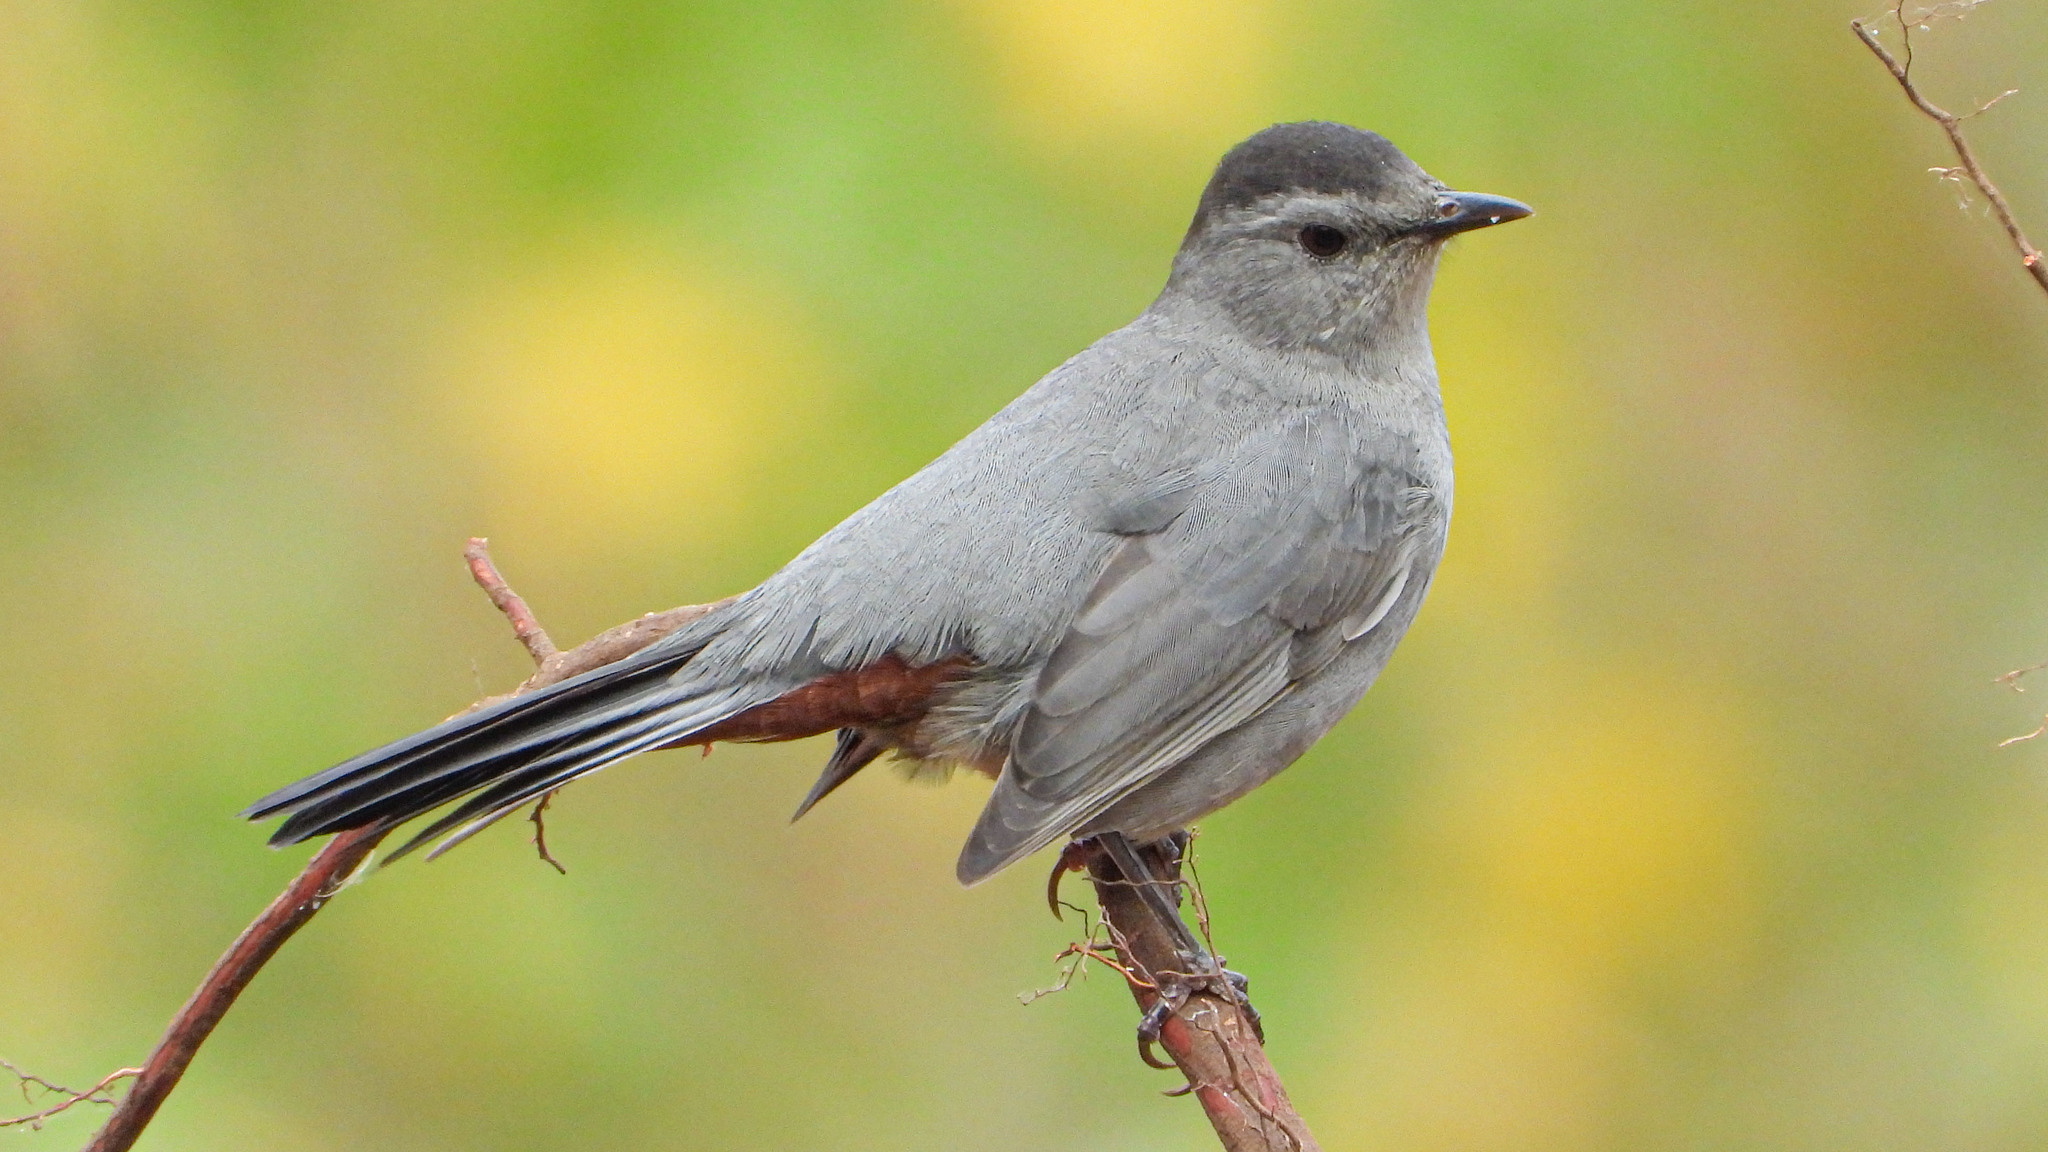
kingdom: Animalia
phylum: Chordata
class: Aves
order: Passeriformes
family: Mimidae
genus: Dumetella
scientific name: Dumetella carolinensis
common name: Gray catbird
